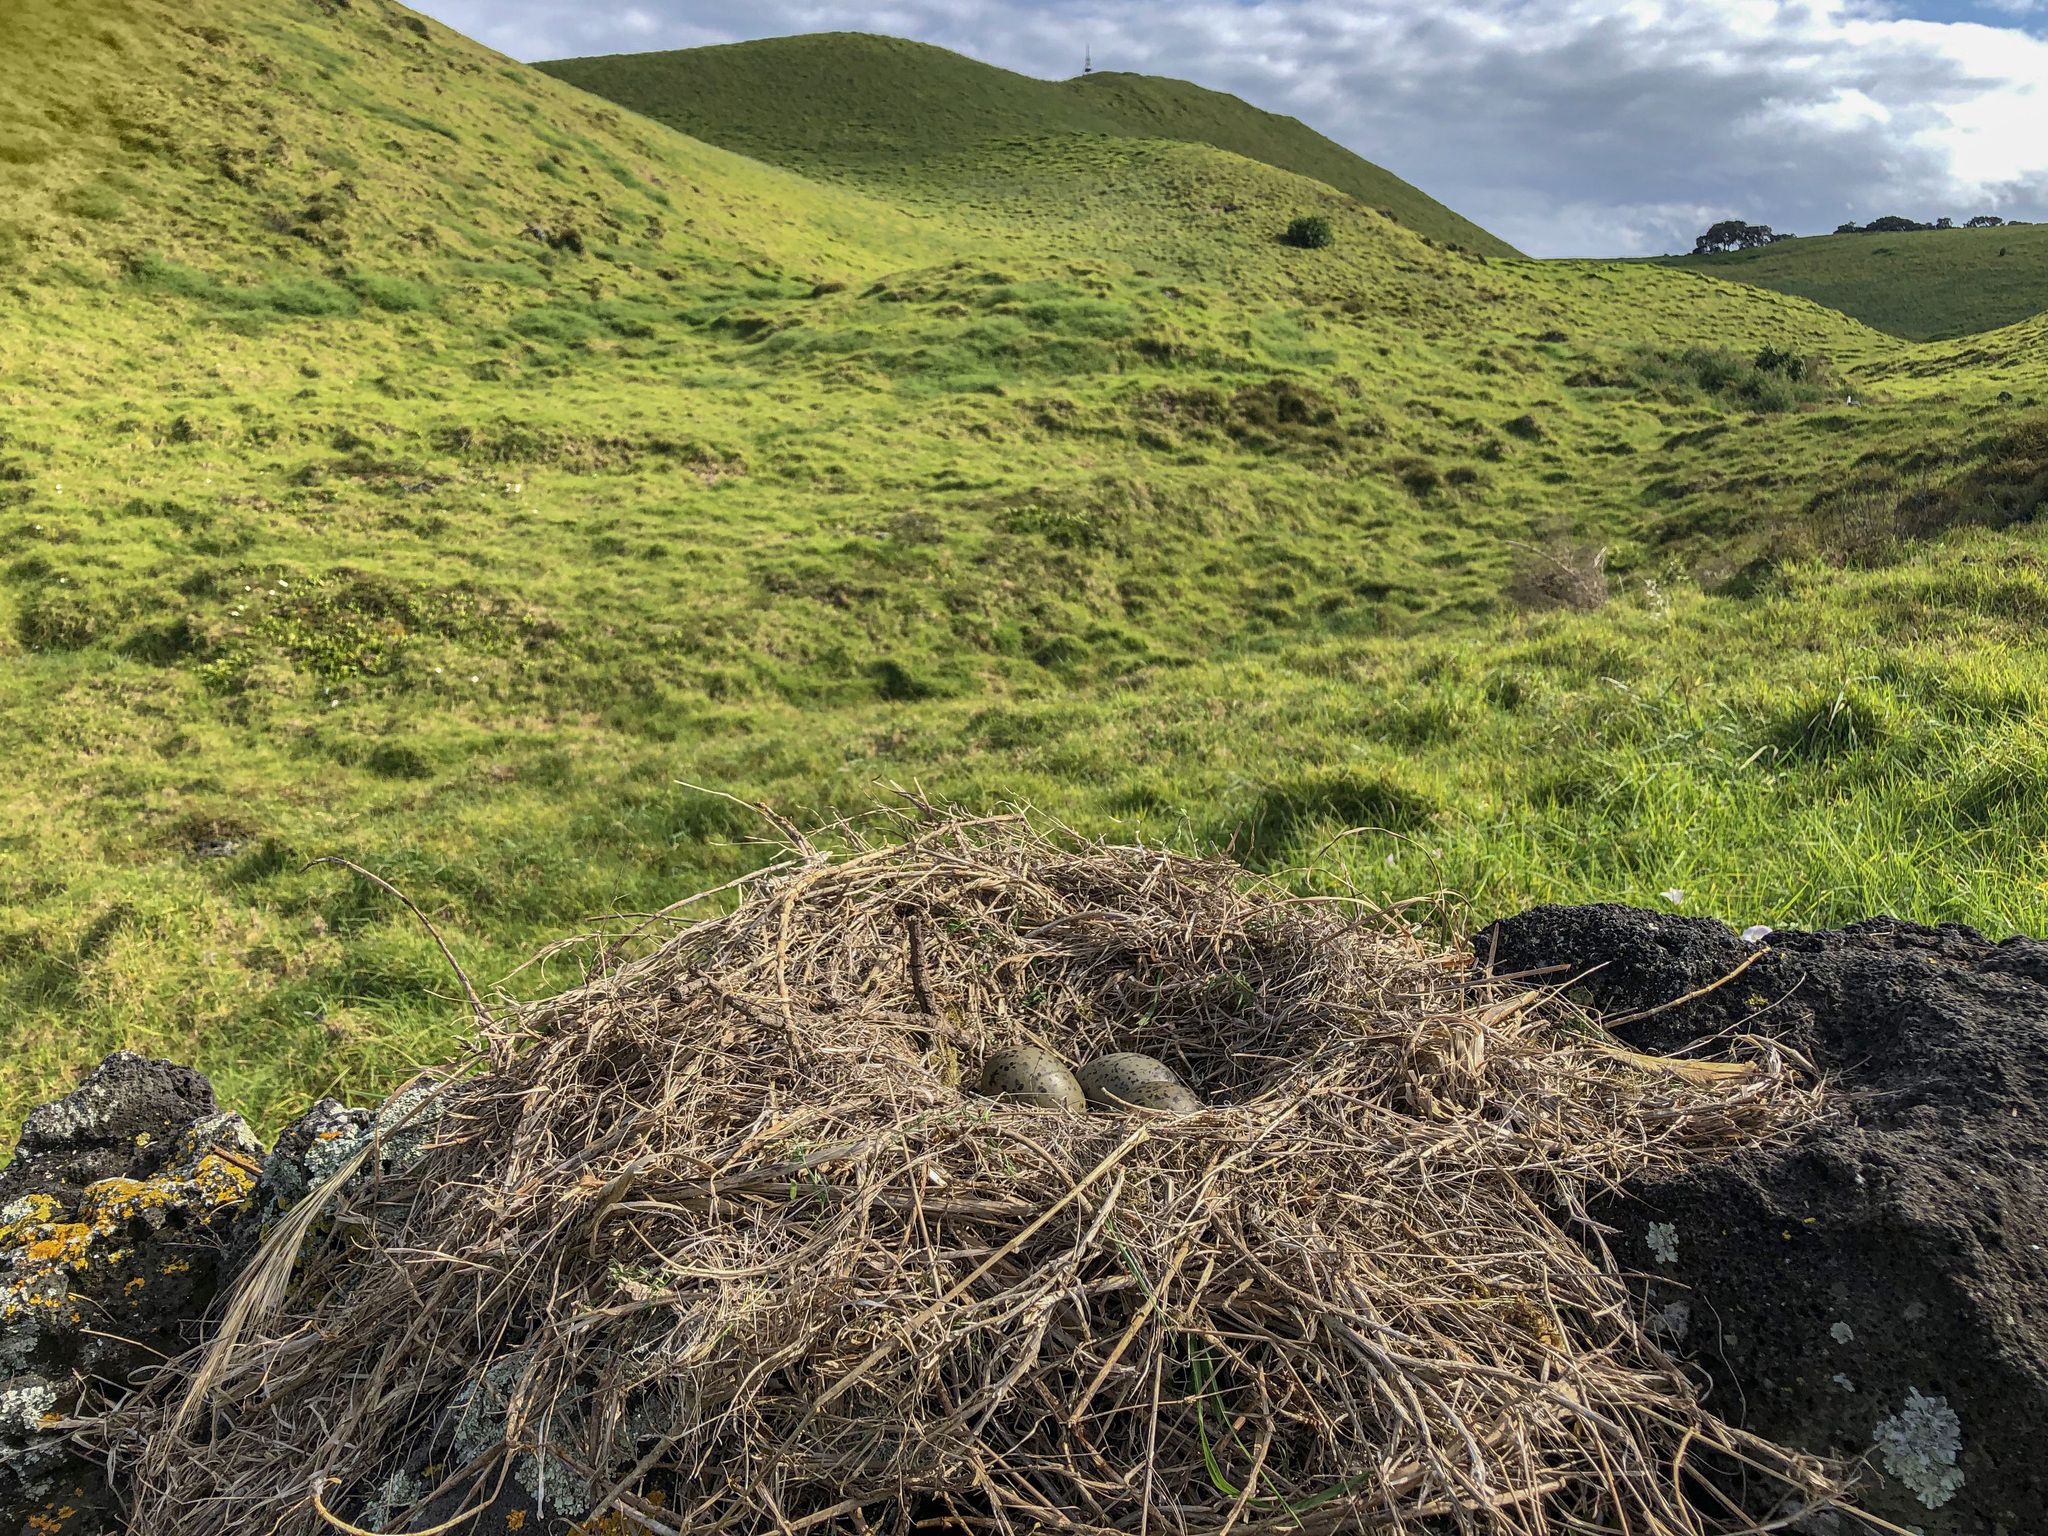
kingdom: Animalia
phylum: Chordata
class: Aves
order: Charadriiformes
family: Laridae
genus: Larus
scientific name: Larus dominicanus
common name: Kelp gull
